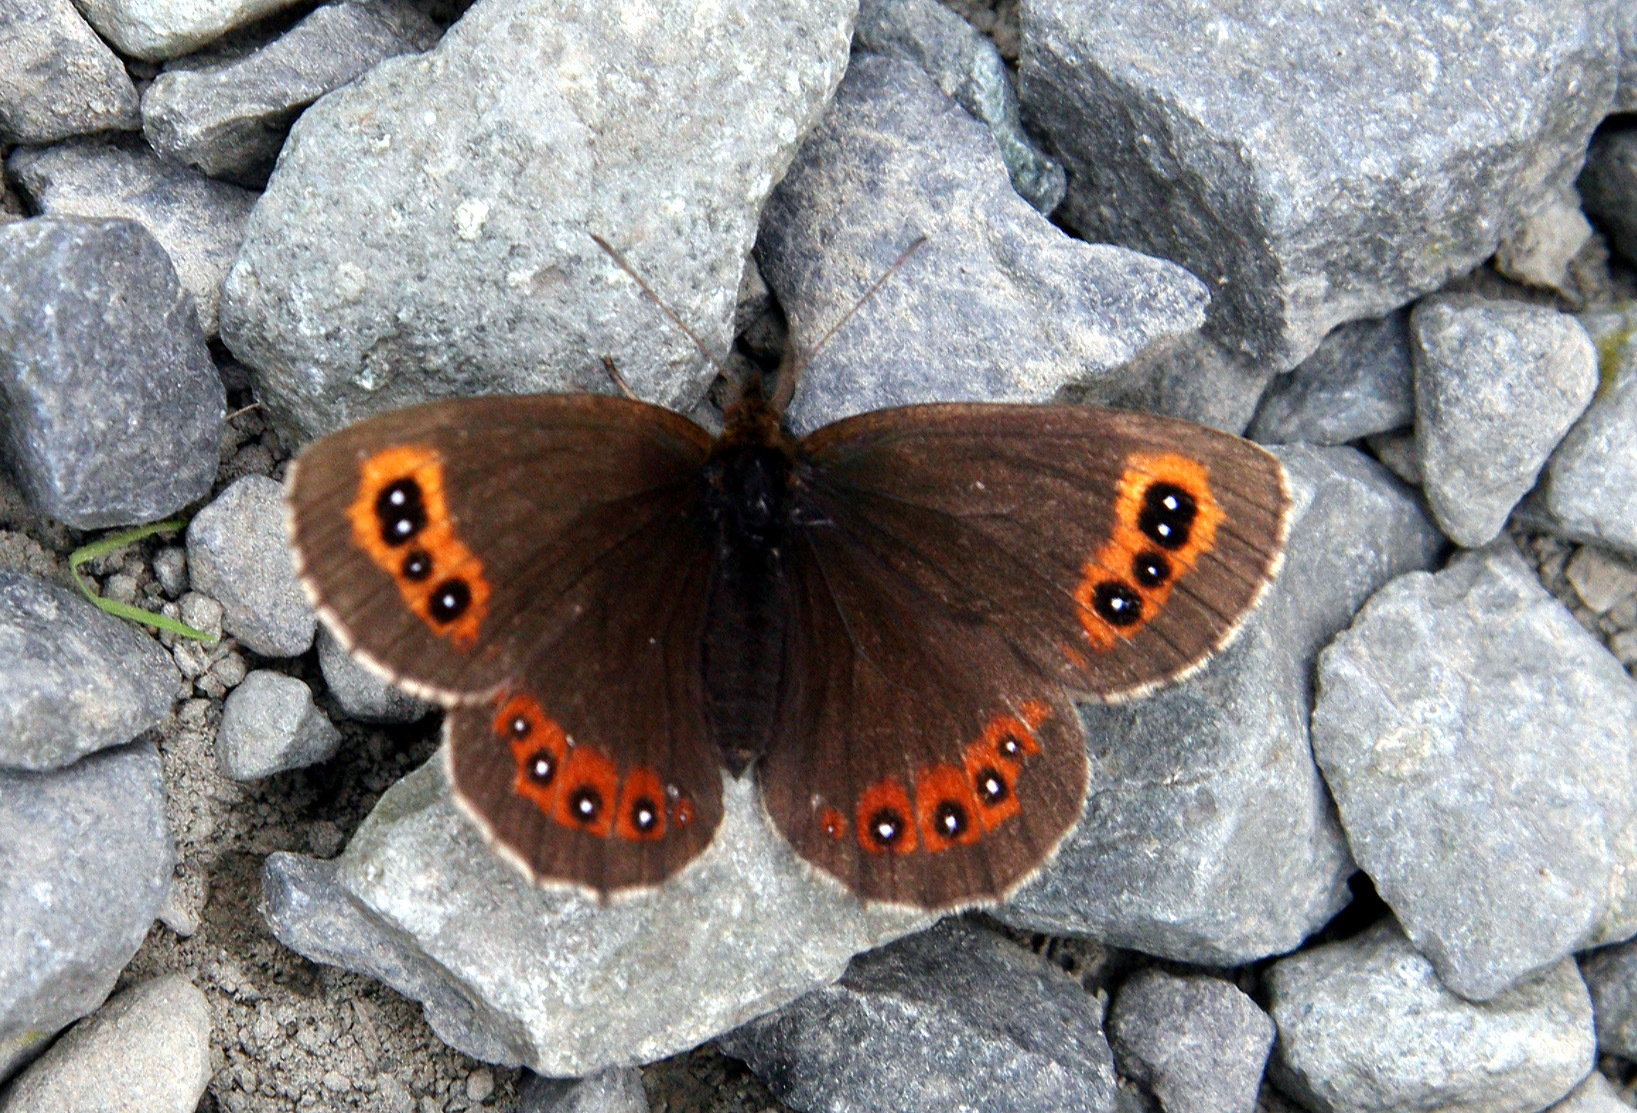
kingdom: Animalia
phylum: Arthropoda
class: Insecta
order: Lepidoptera
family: Nymphalidae
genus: Erebia
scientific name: Erebia aethiops
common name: Scotch argus
